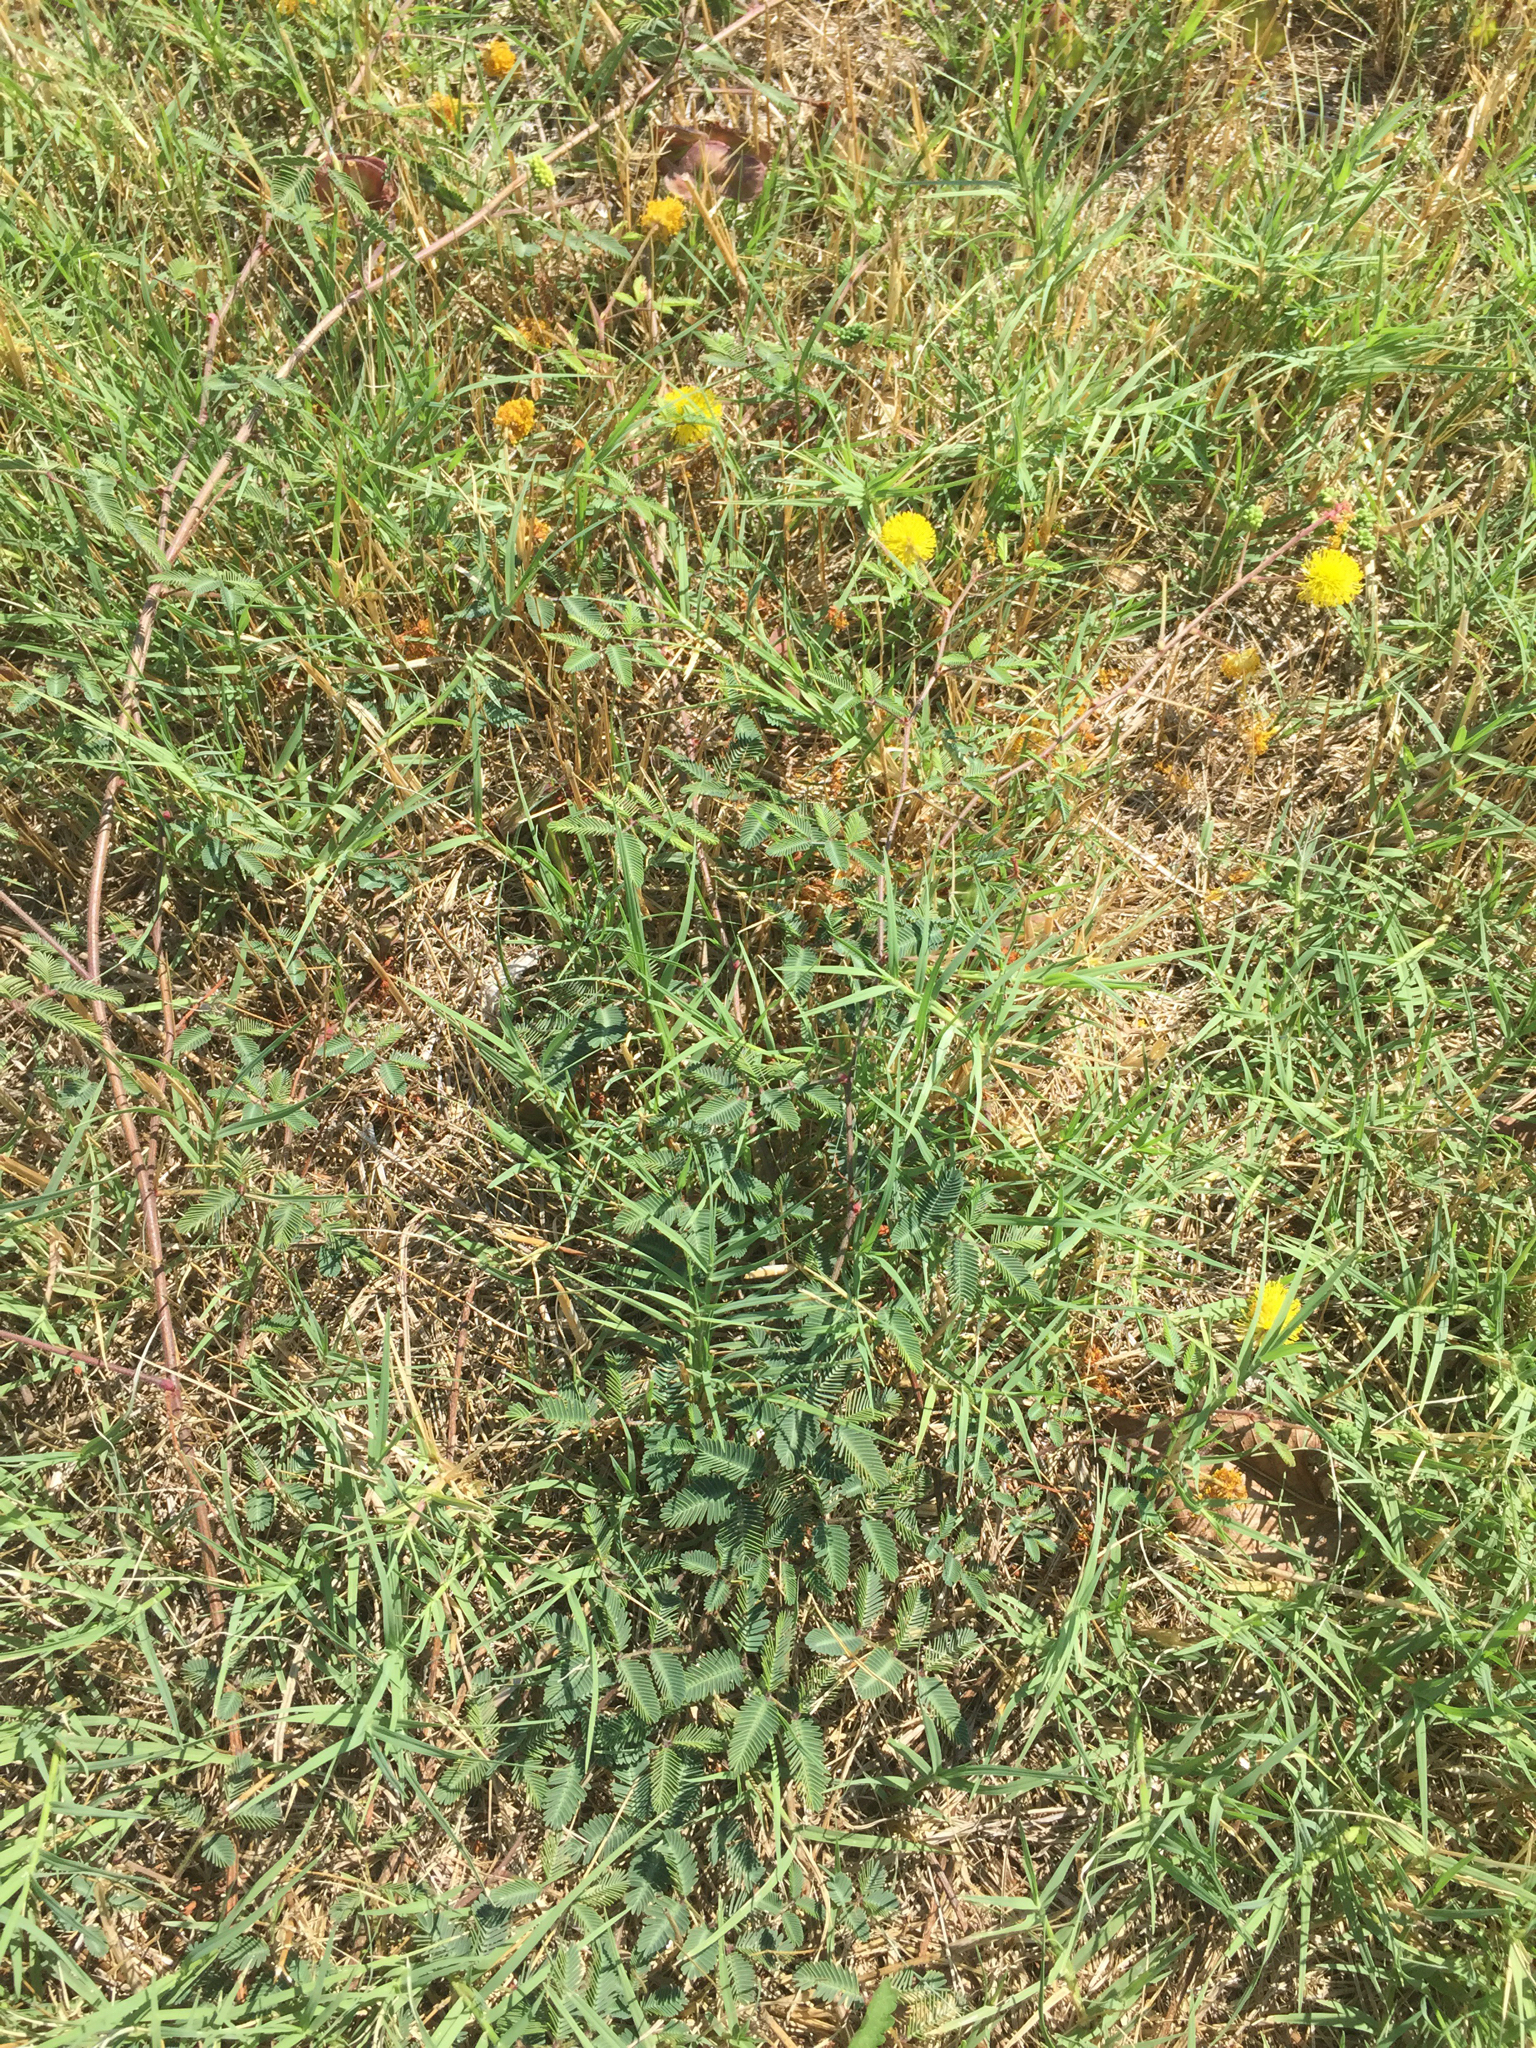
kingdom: Plantae
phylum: Tracheophyta
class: Magnoliopsida
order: Fabales
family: Fabaceae
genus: Neptunia
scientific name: Neptunia lutea
